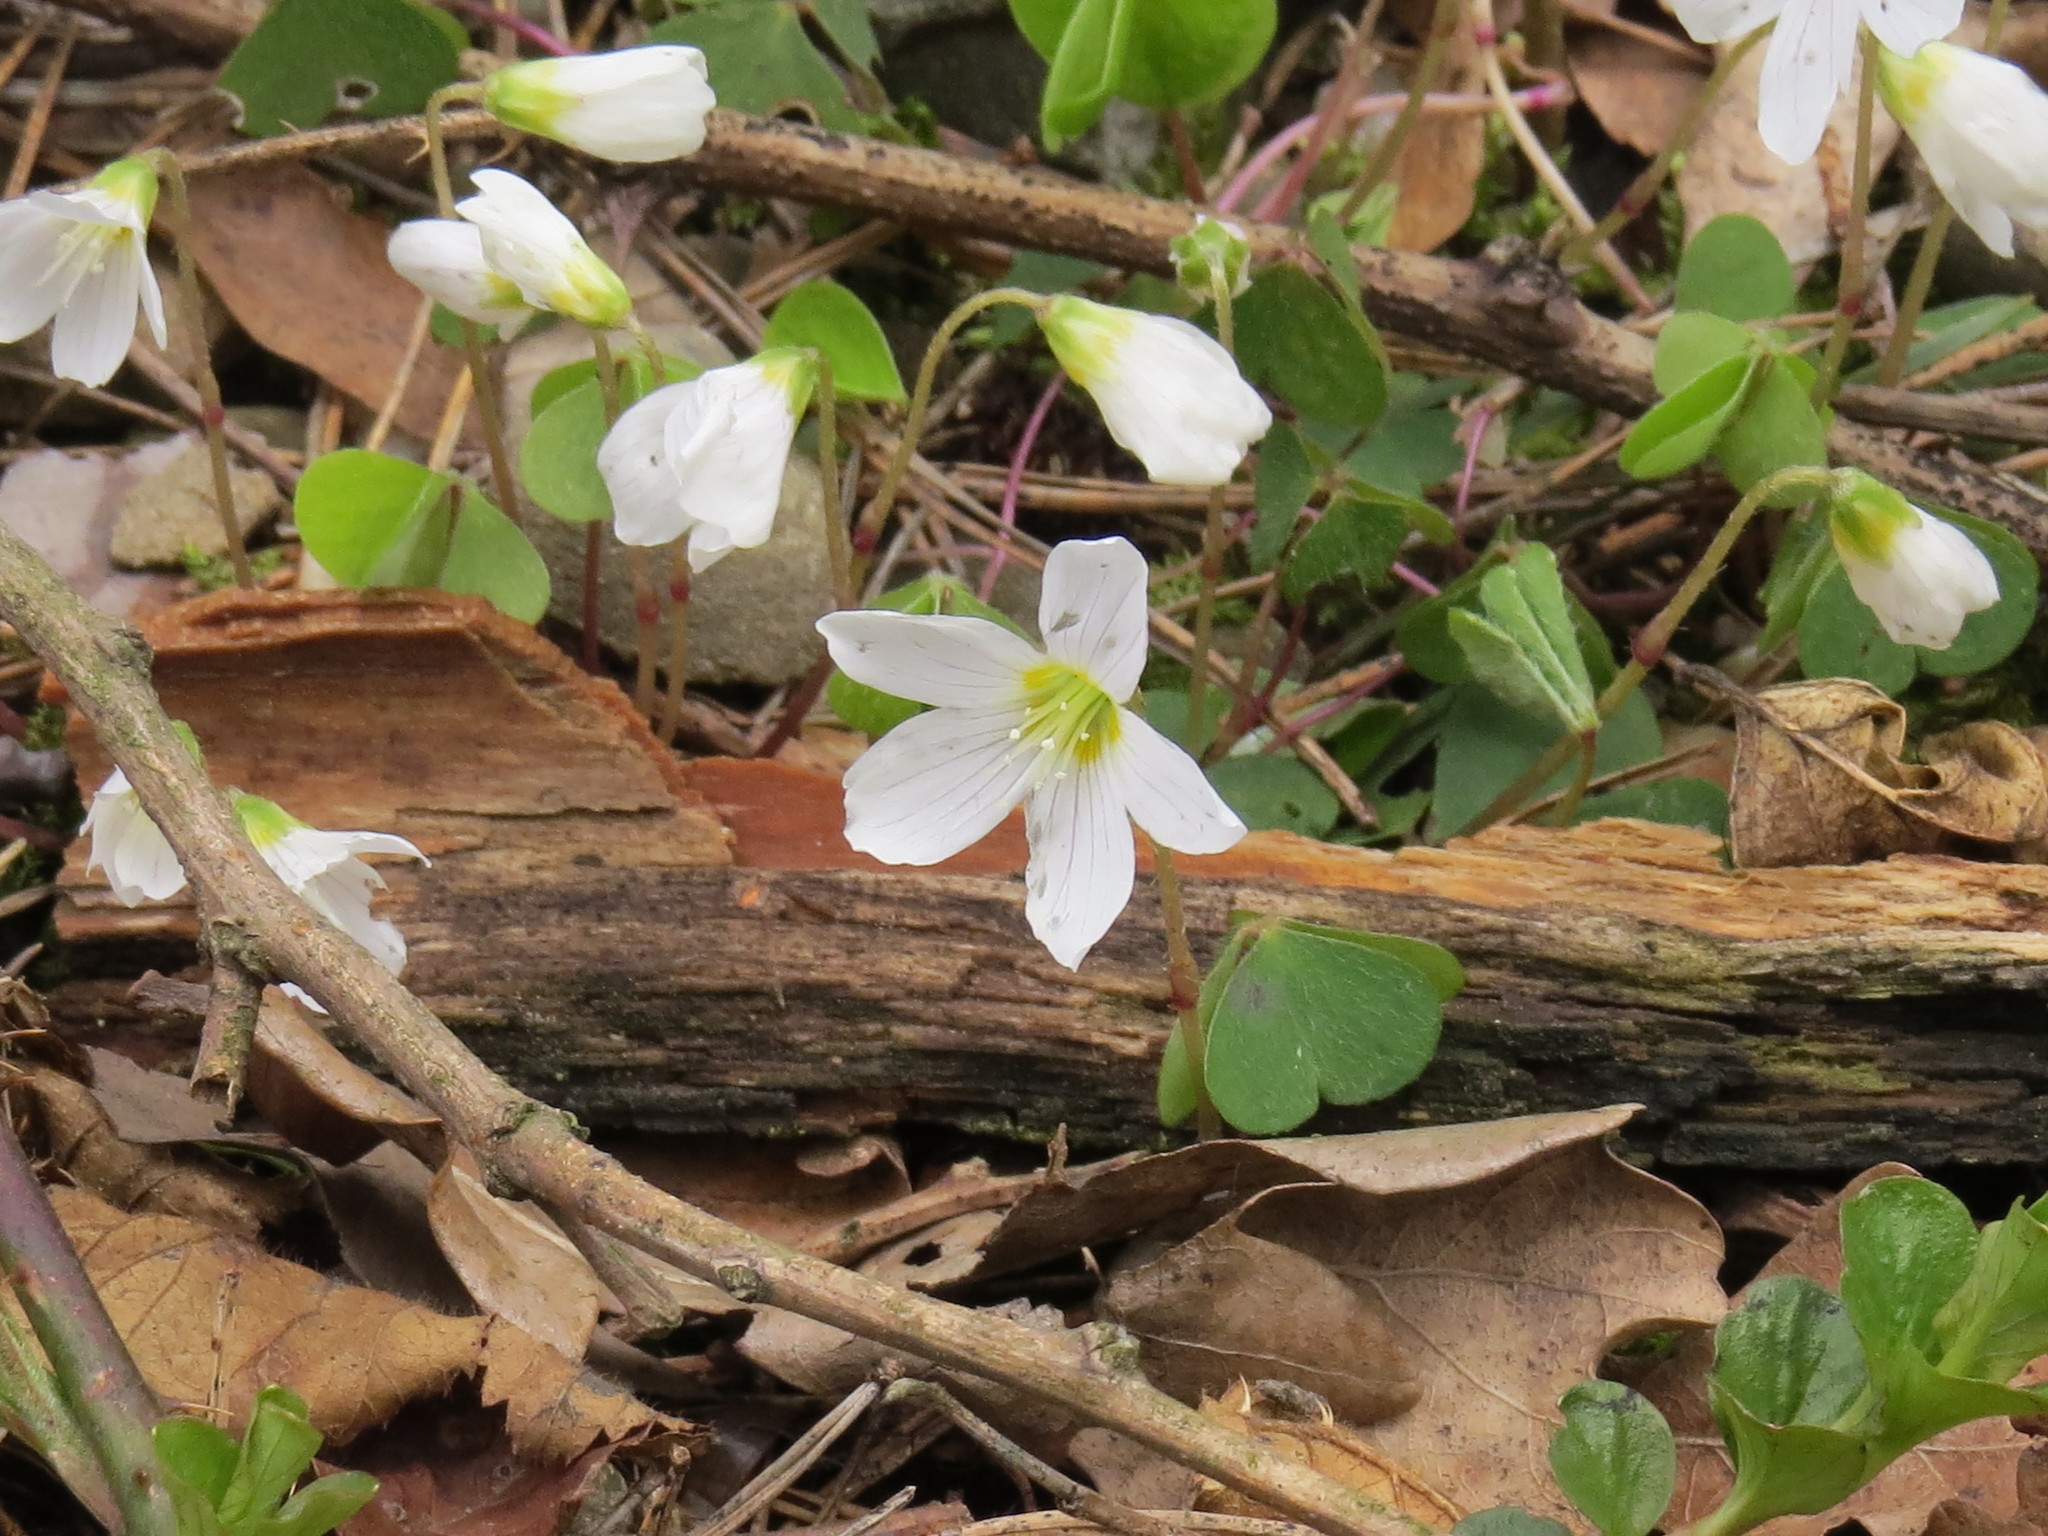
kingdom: Plantae
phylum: Tracheophyta
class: Magnoliopsida
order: Oxalidales
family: Oxalidaceae
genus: Oxalis
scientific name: Oxalis acetosella
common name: Wood-sorrel
